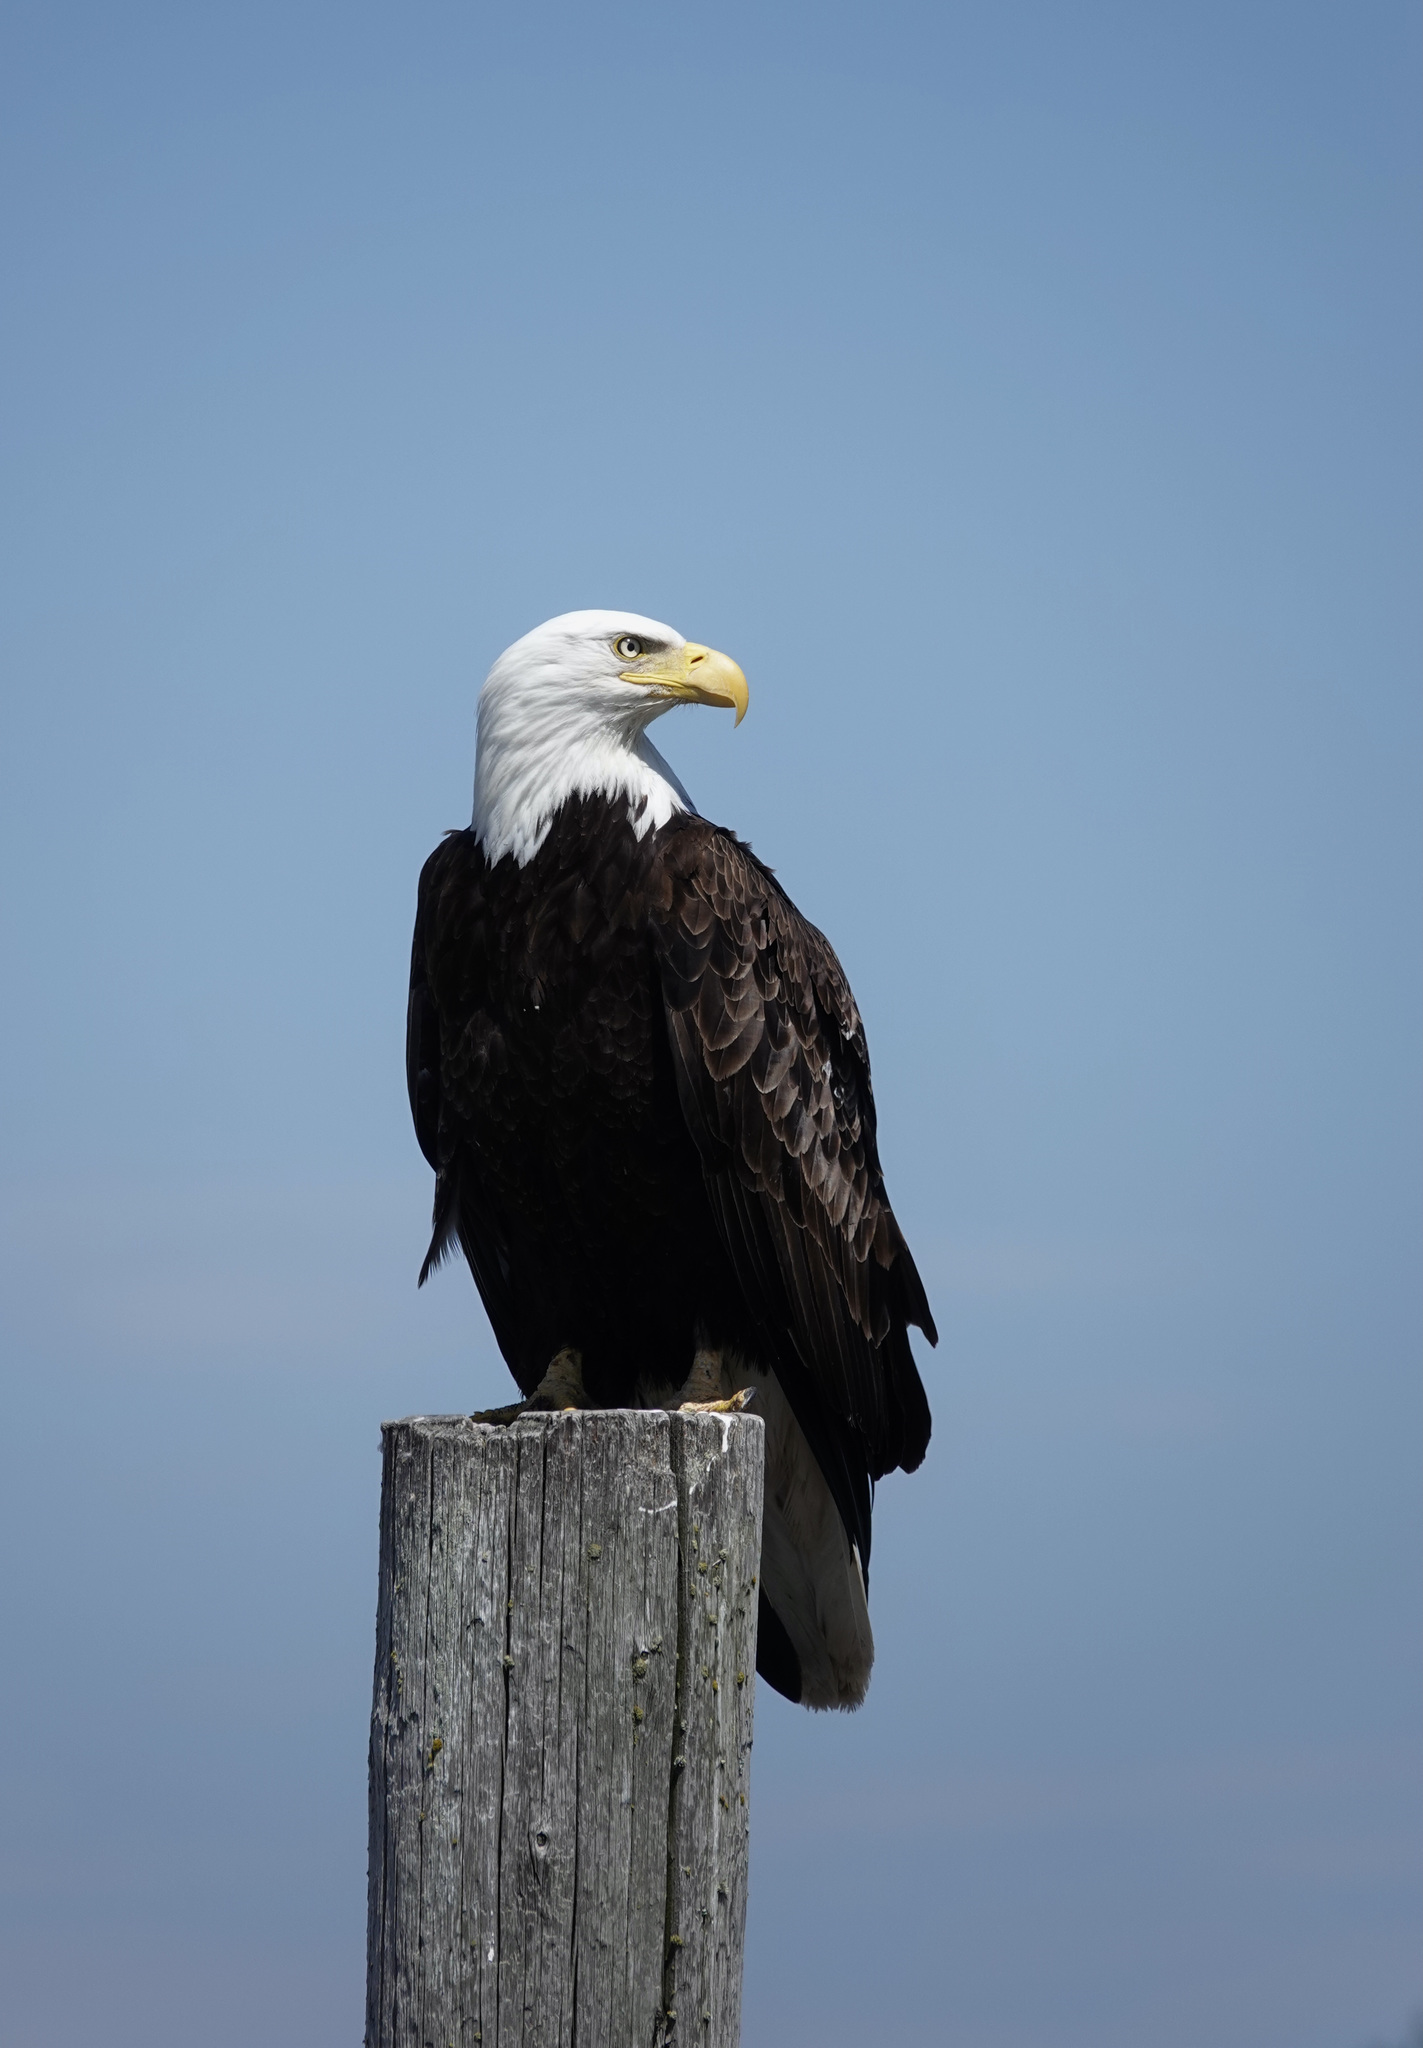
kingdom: Animalia
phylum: Chordata
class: Aves
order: Accipitriformes
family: Accipitridae
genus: Haliaeetus
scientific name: Haliaeetus leucocephalus
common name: Bald eagle
